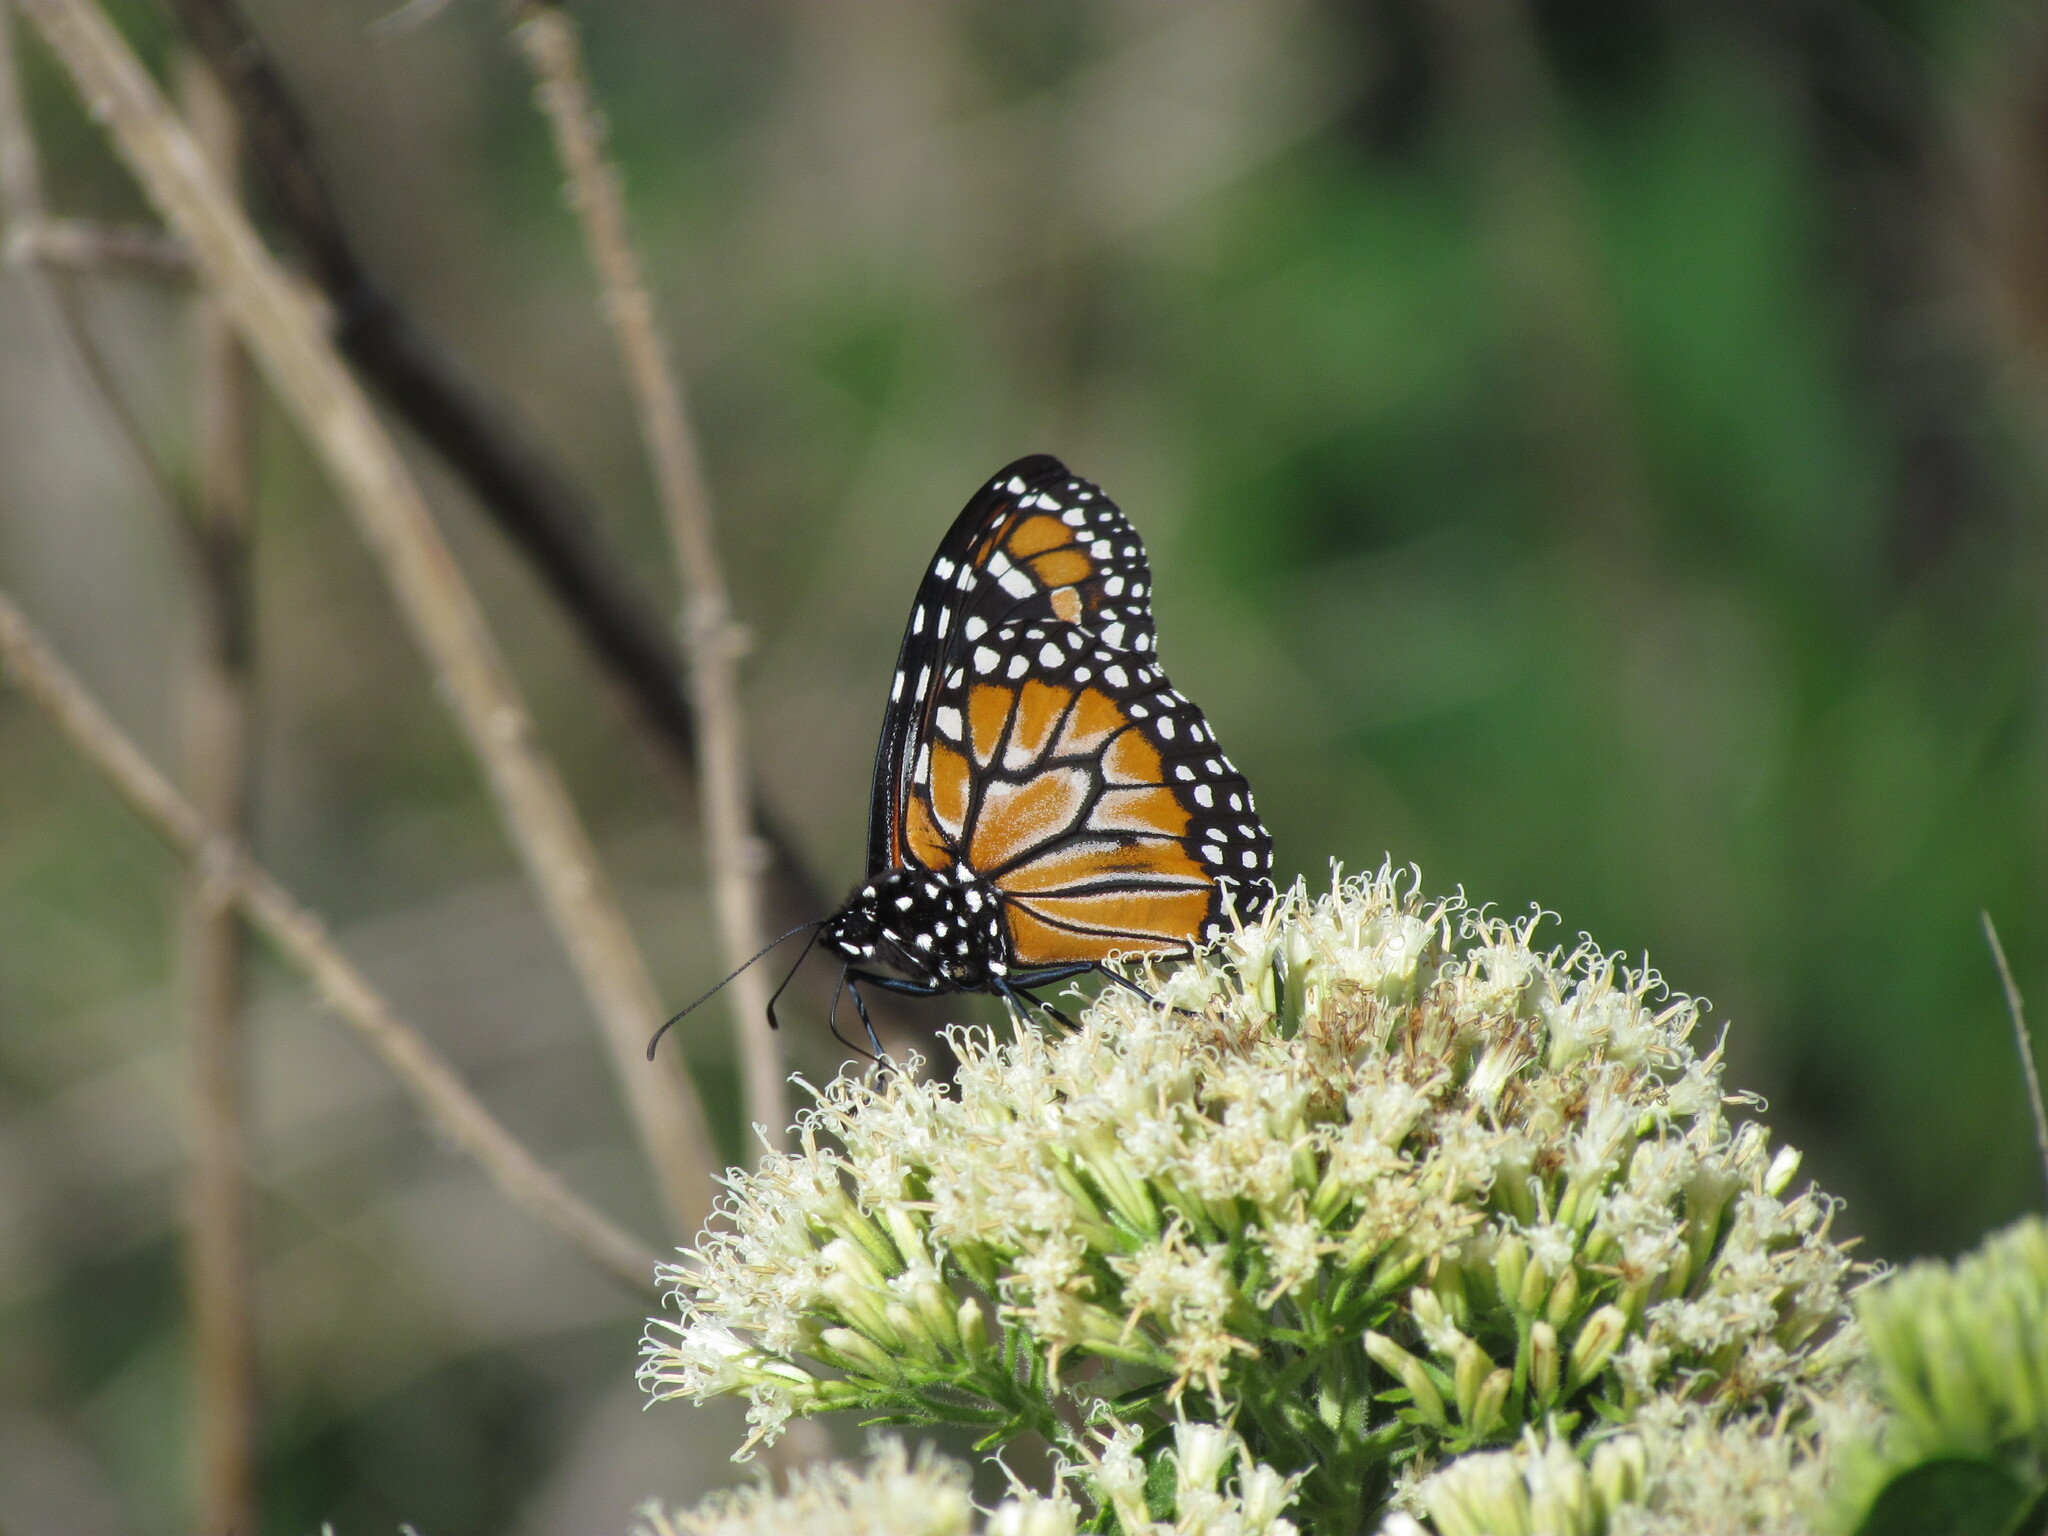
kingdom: Animalia
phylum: Arthropoda
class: Insecta
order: Lepidoptera
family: Nymphalidae
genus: Danaus
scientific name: Danaus erippus
